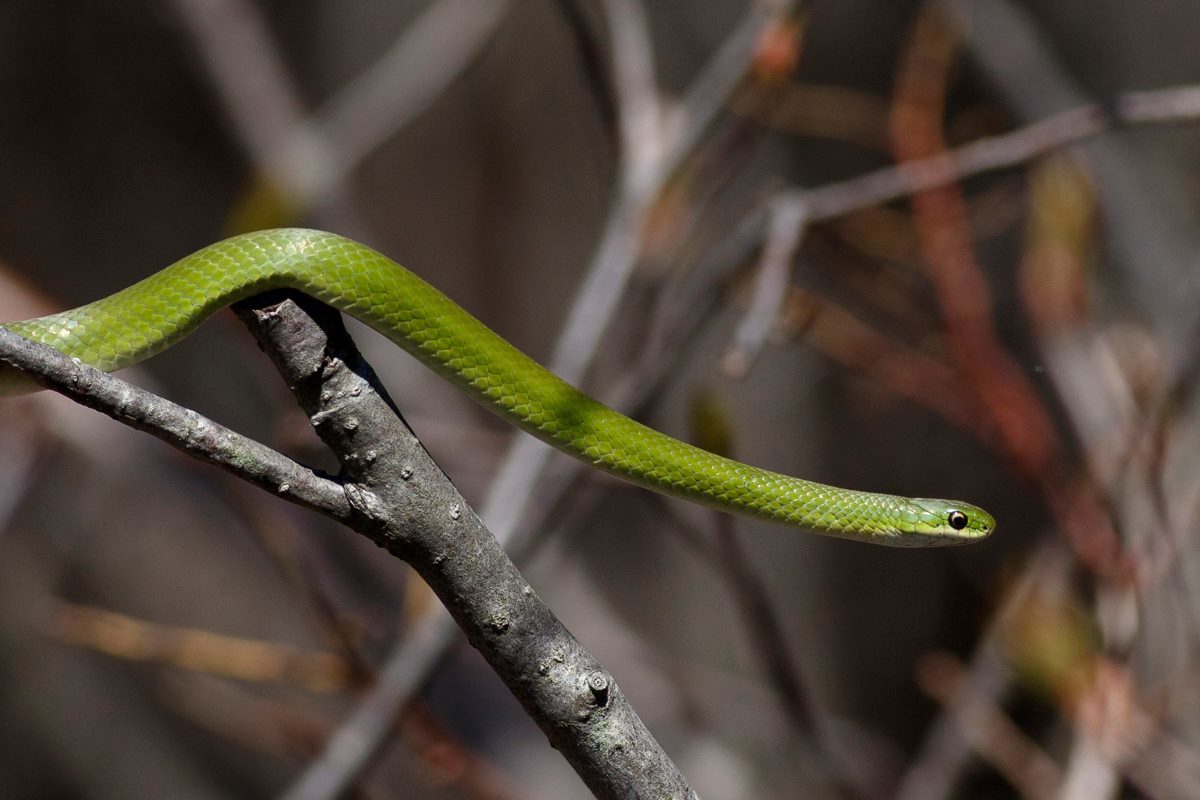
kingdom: Animalia
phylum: Chordata
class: Squamata
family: Colubridae
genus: Opheodrys
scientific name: Opheodrys vernalis
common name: Smooth green snake
